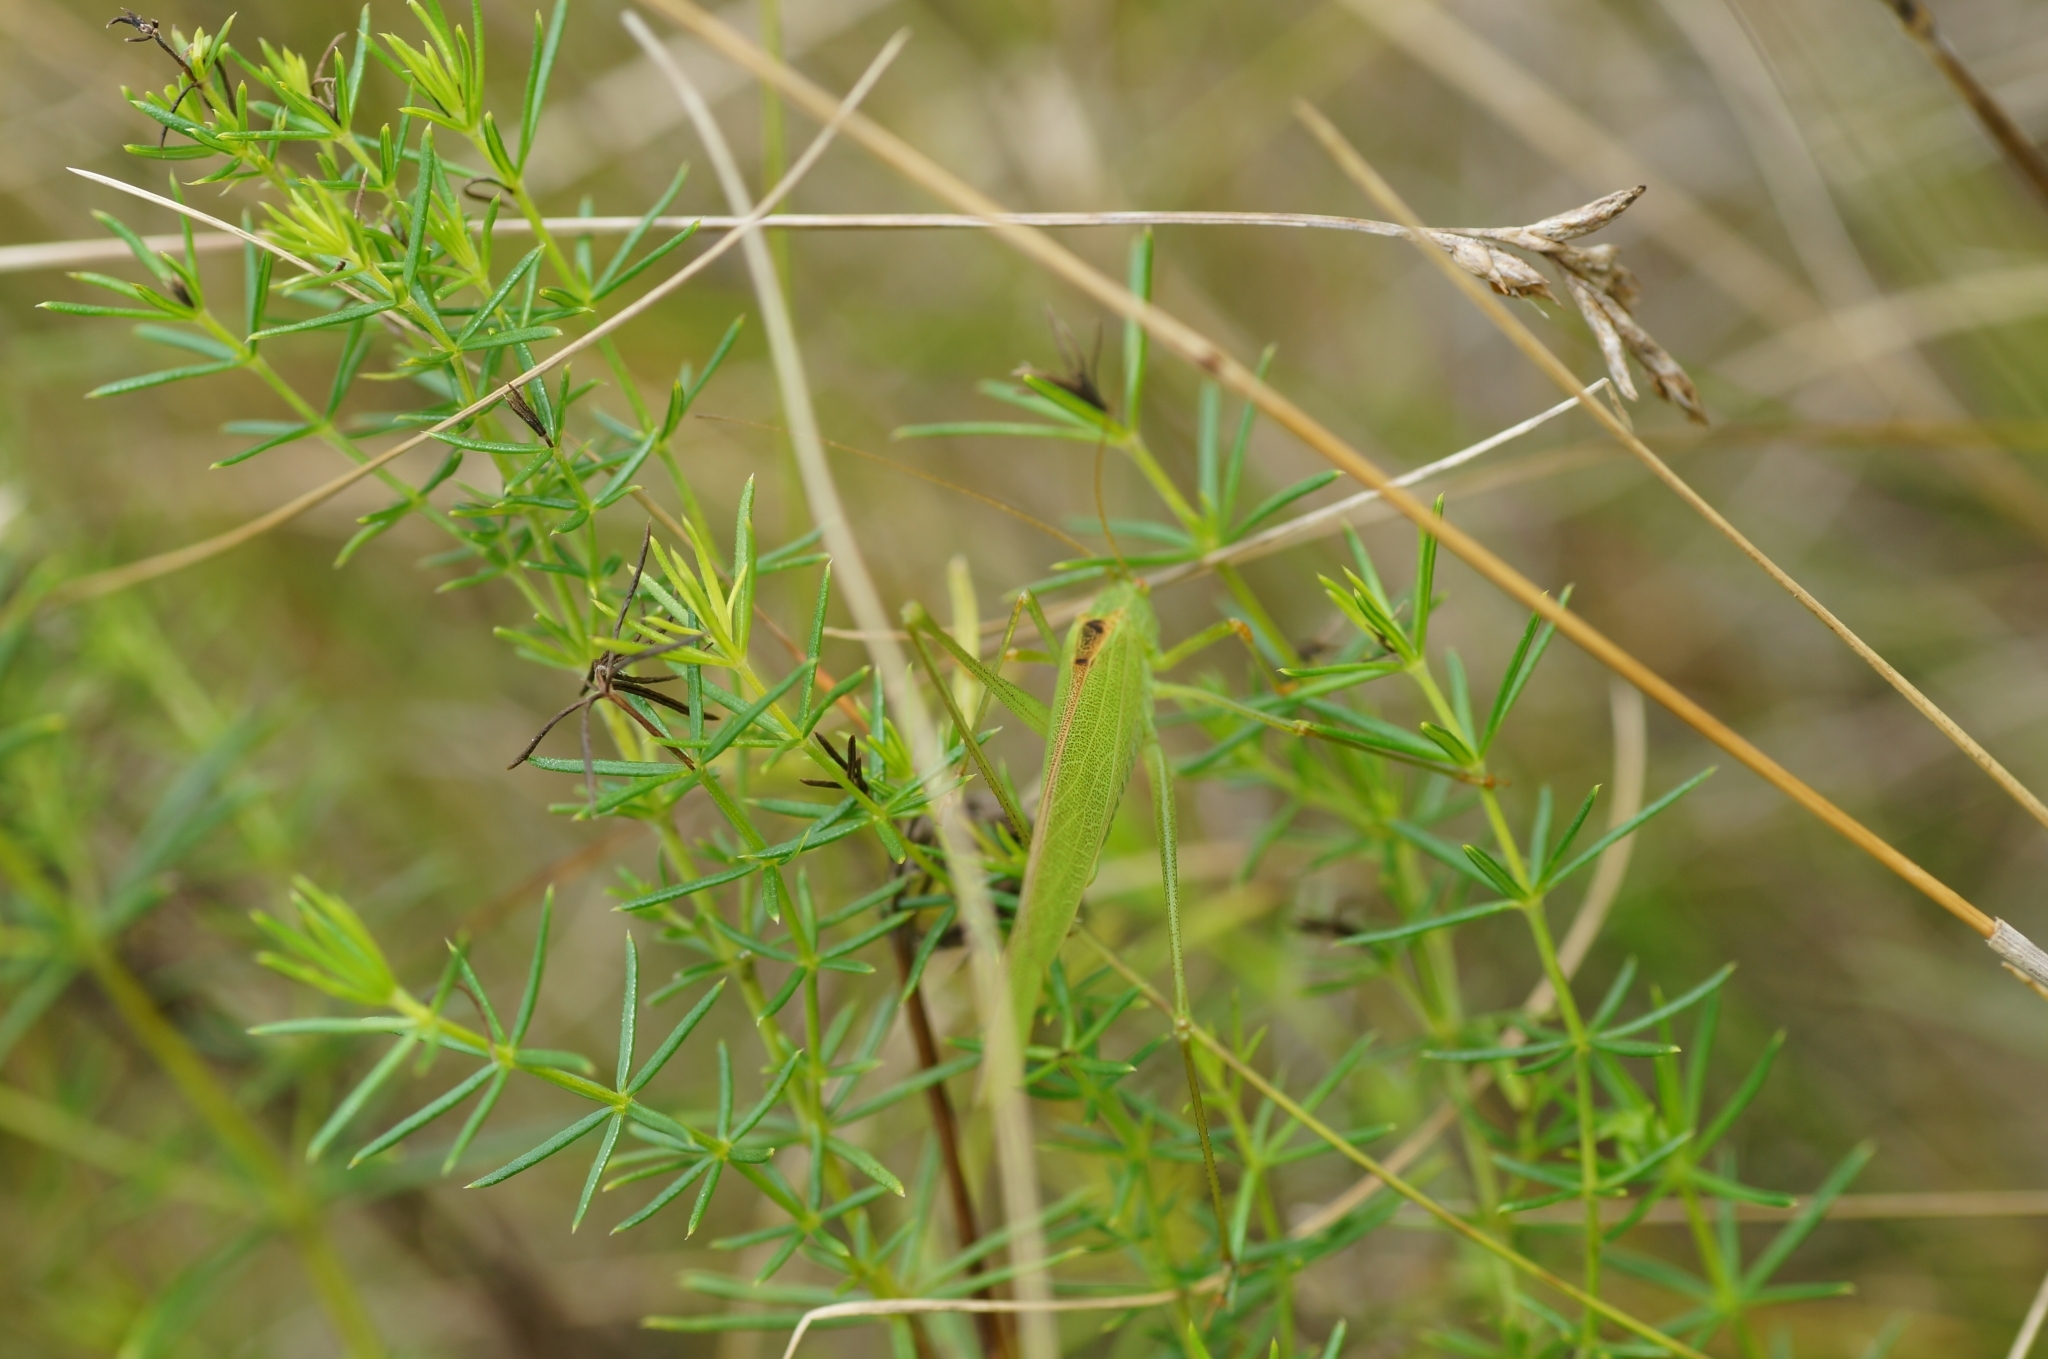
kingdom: Animalia
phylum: Arthropoda
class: Insecta
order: Orthoptera
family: Tettigoniidae
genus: Phaneroptera
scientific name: Phaneroptera falcata
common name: Sickle-bearing bush-cricket
